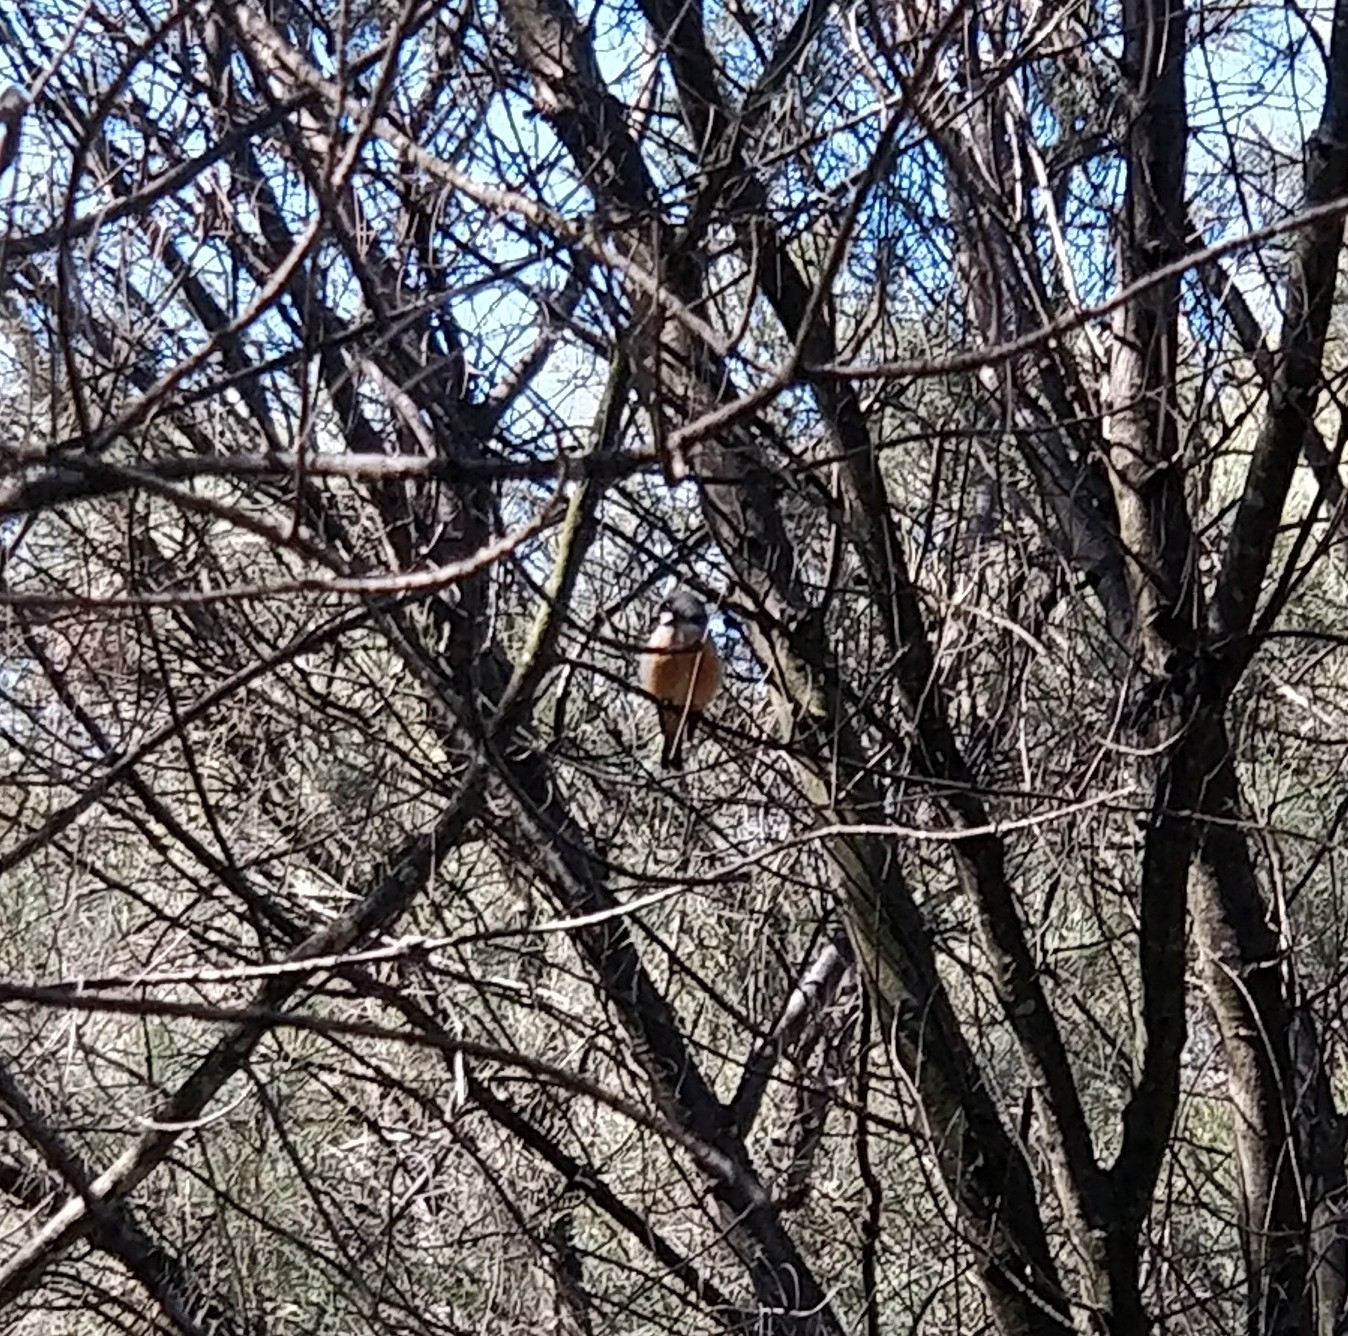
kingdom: Animalia
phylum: Chordata
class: Aves
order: Passeriformes
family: Pachycephalidae
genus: Pachycephala
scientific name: Pachycephala rufiventris
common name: Rufous whistler
